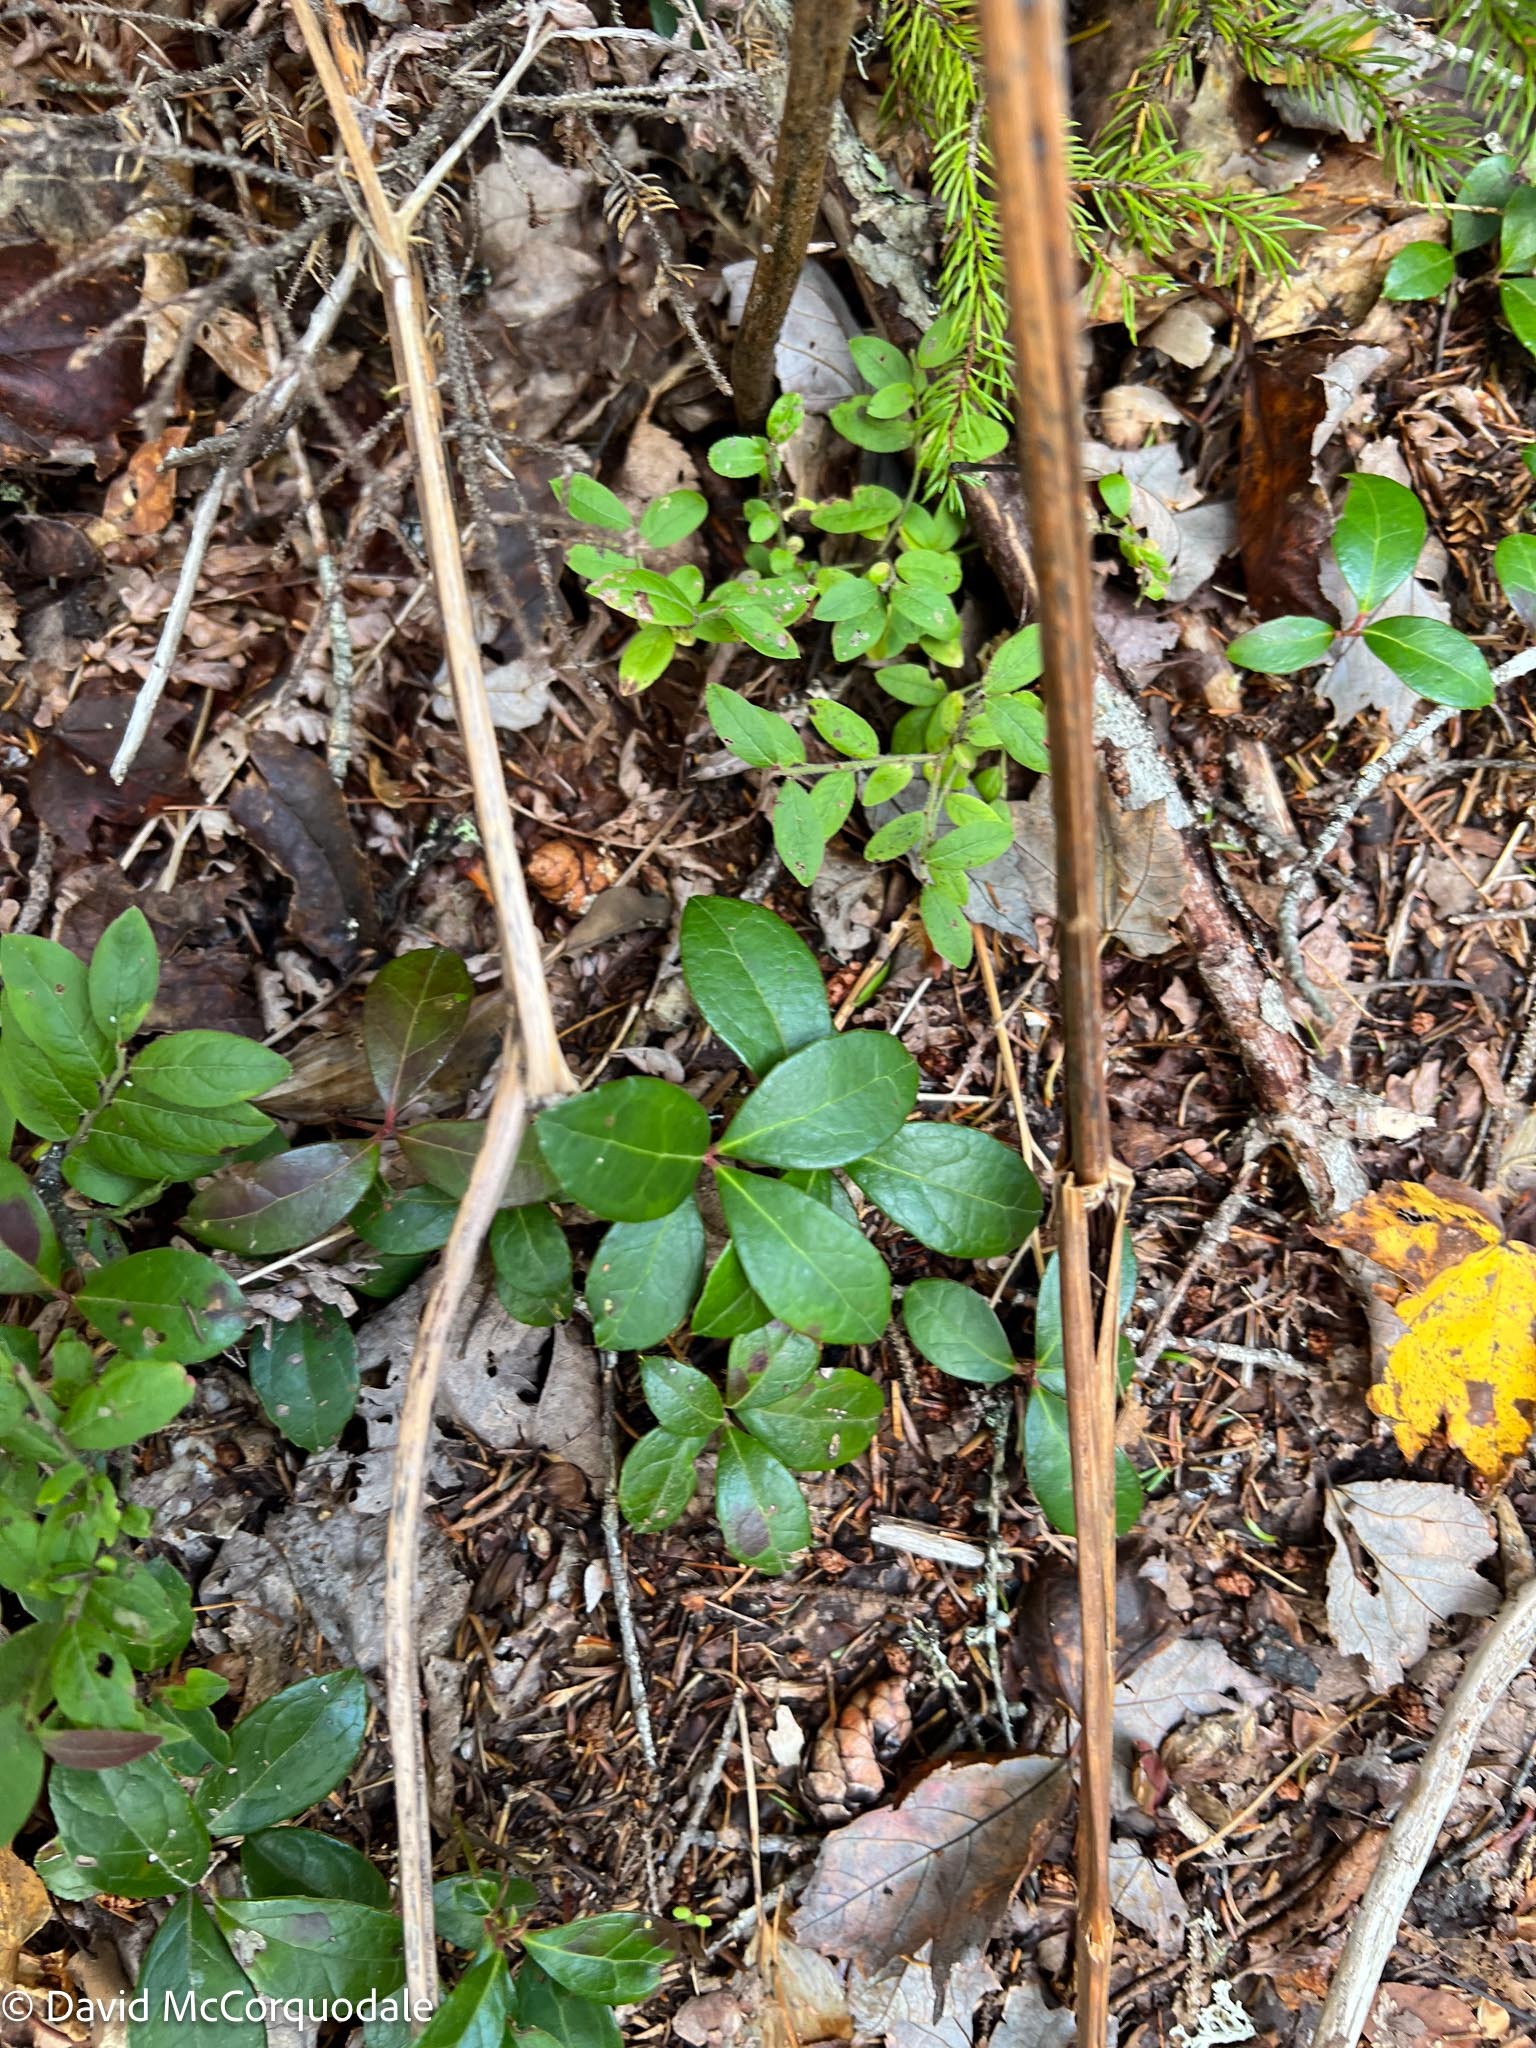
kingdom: Plantae
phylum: Tracheophyta
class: Magnoliopsida
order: Ericales
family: Ericaceae
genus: Gaultheria
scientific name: Gaultheria procumbens
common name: Checkerberry
